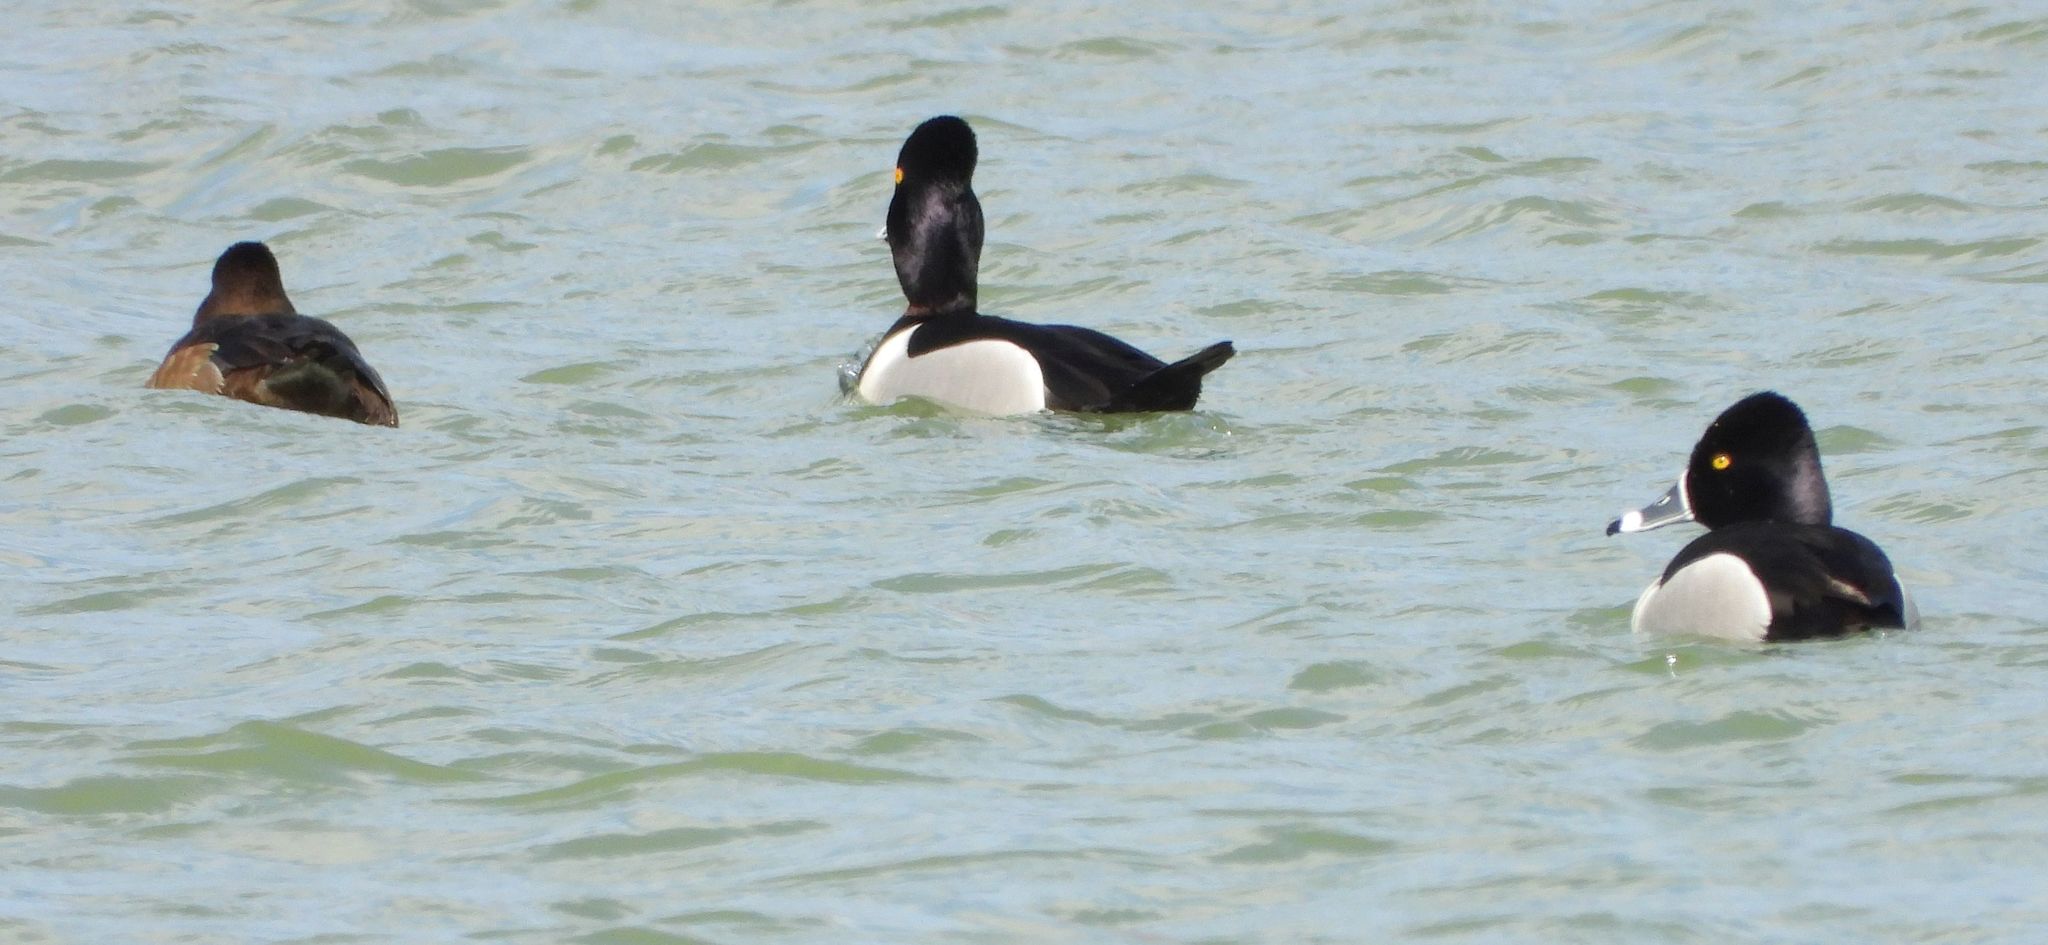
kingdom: Animalia
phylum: Chordata
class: Aves
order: Anseriformes
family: Anatidae
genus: Aythya
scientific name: Aythya collaris
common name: Ring-necked duck
